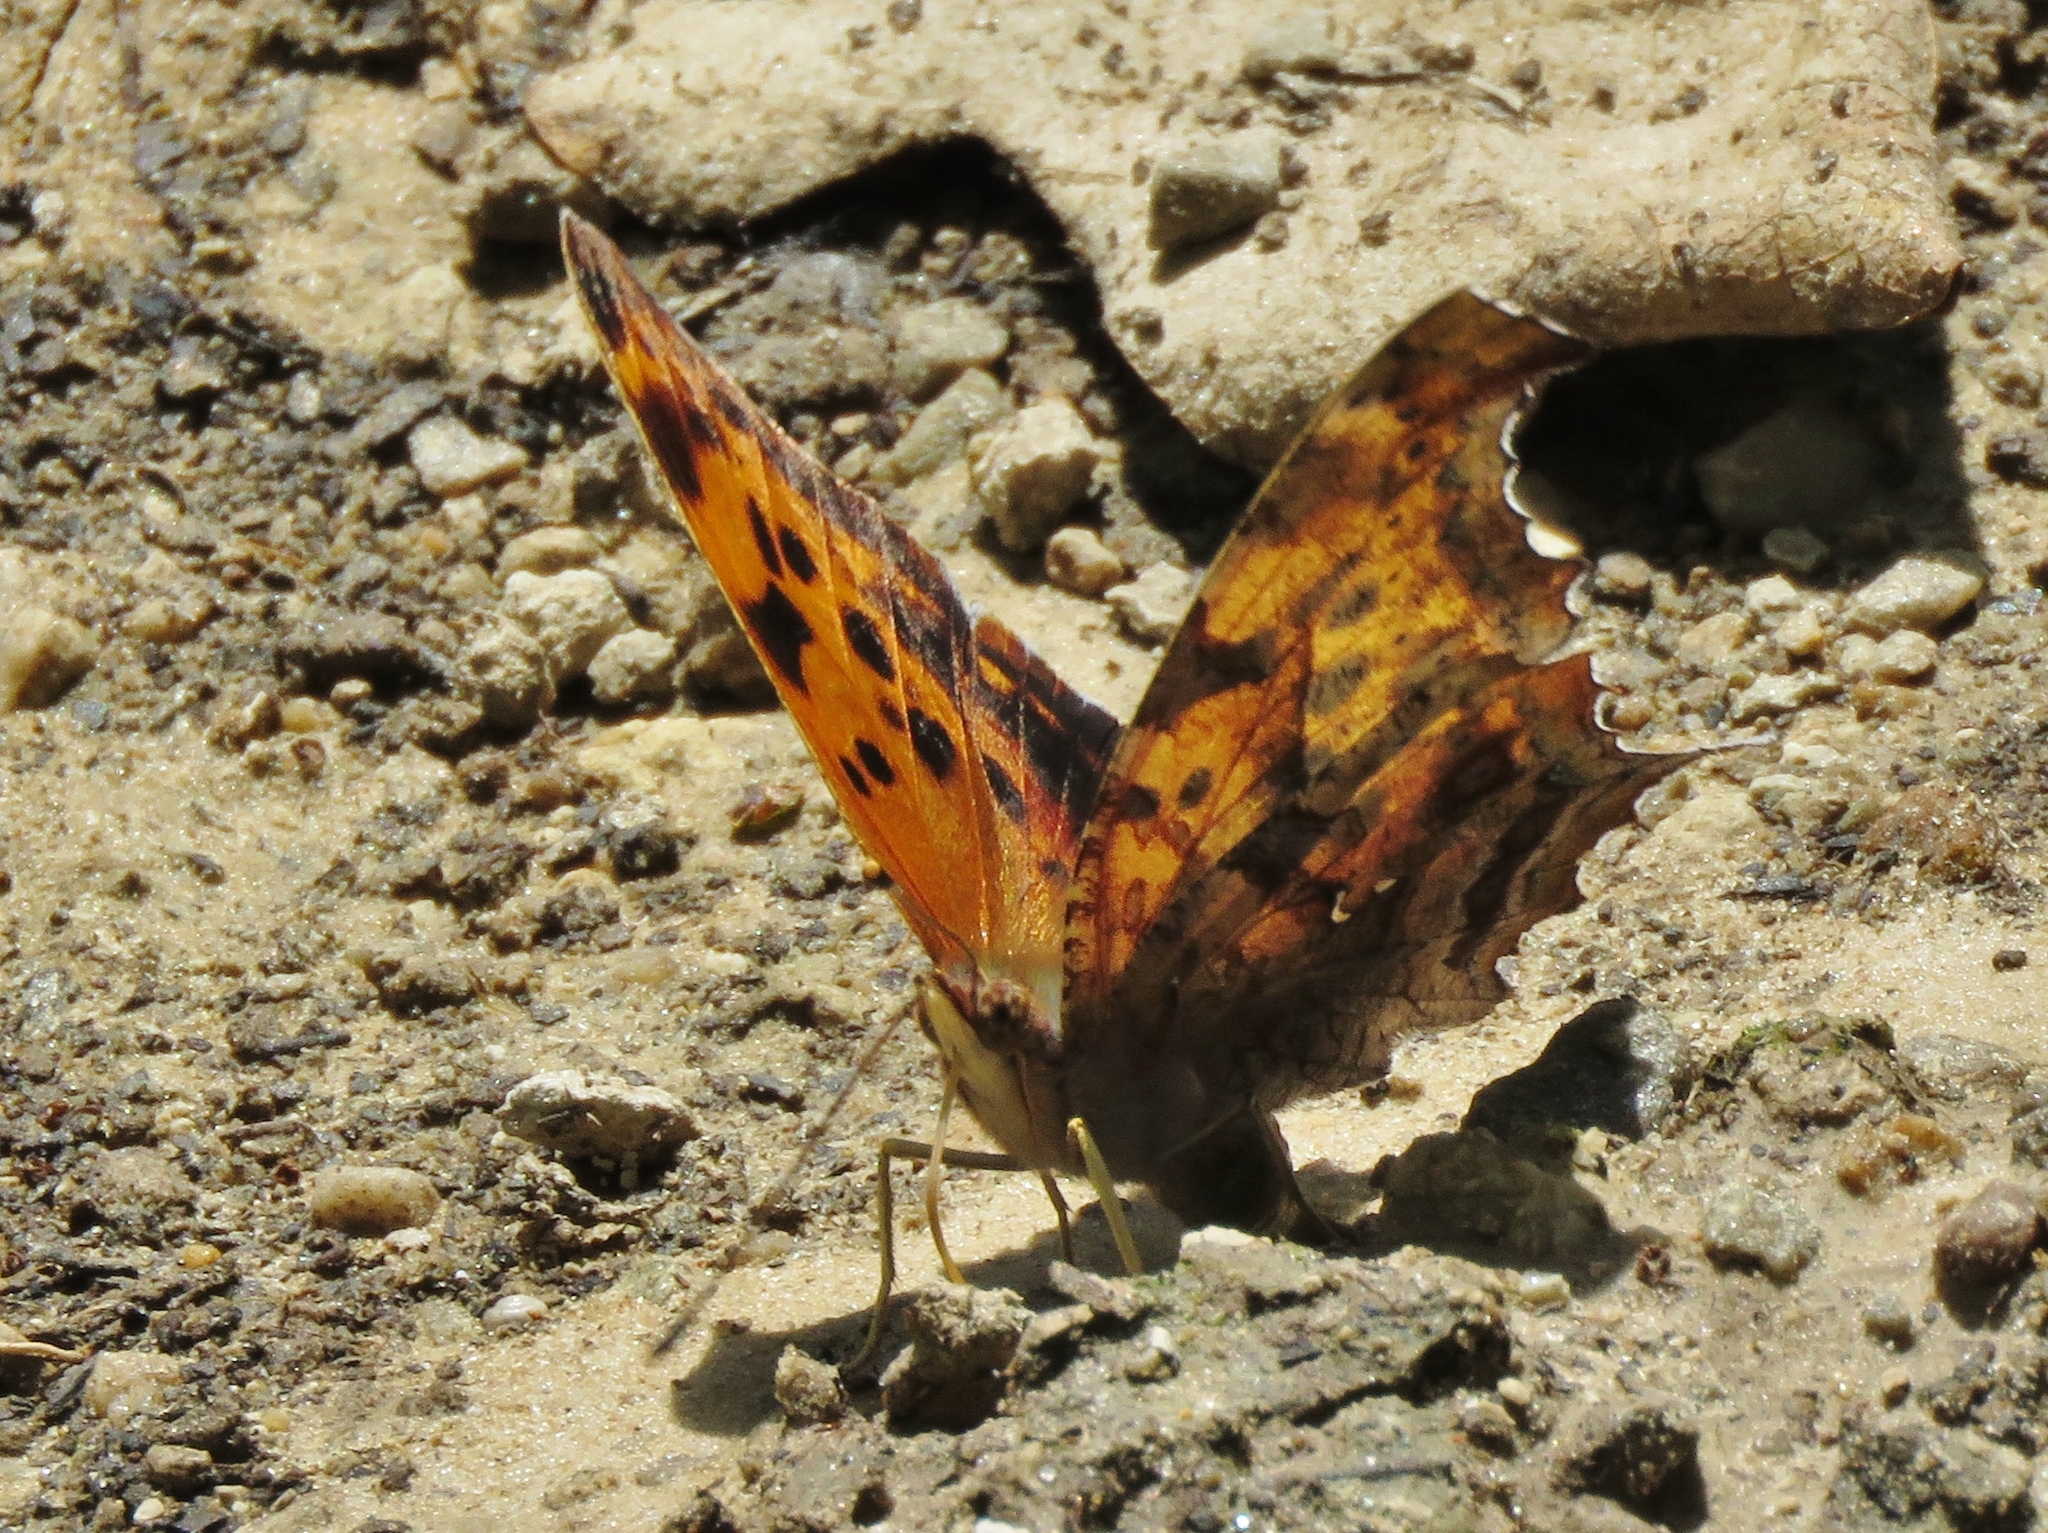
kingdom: Animalia
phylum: Arthropoda
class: Insecta
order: Lepidoptera
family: Nymphalidae
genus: Polygonia
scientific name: Polygonia interrogationis
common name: Question mark
